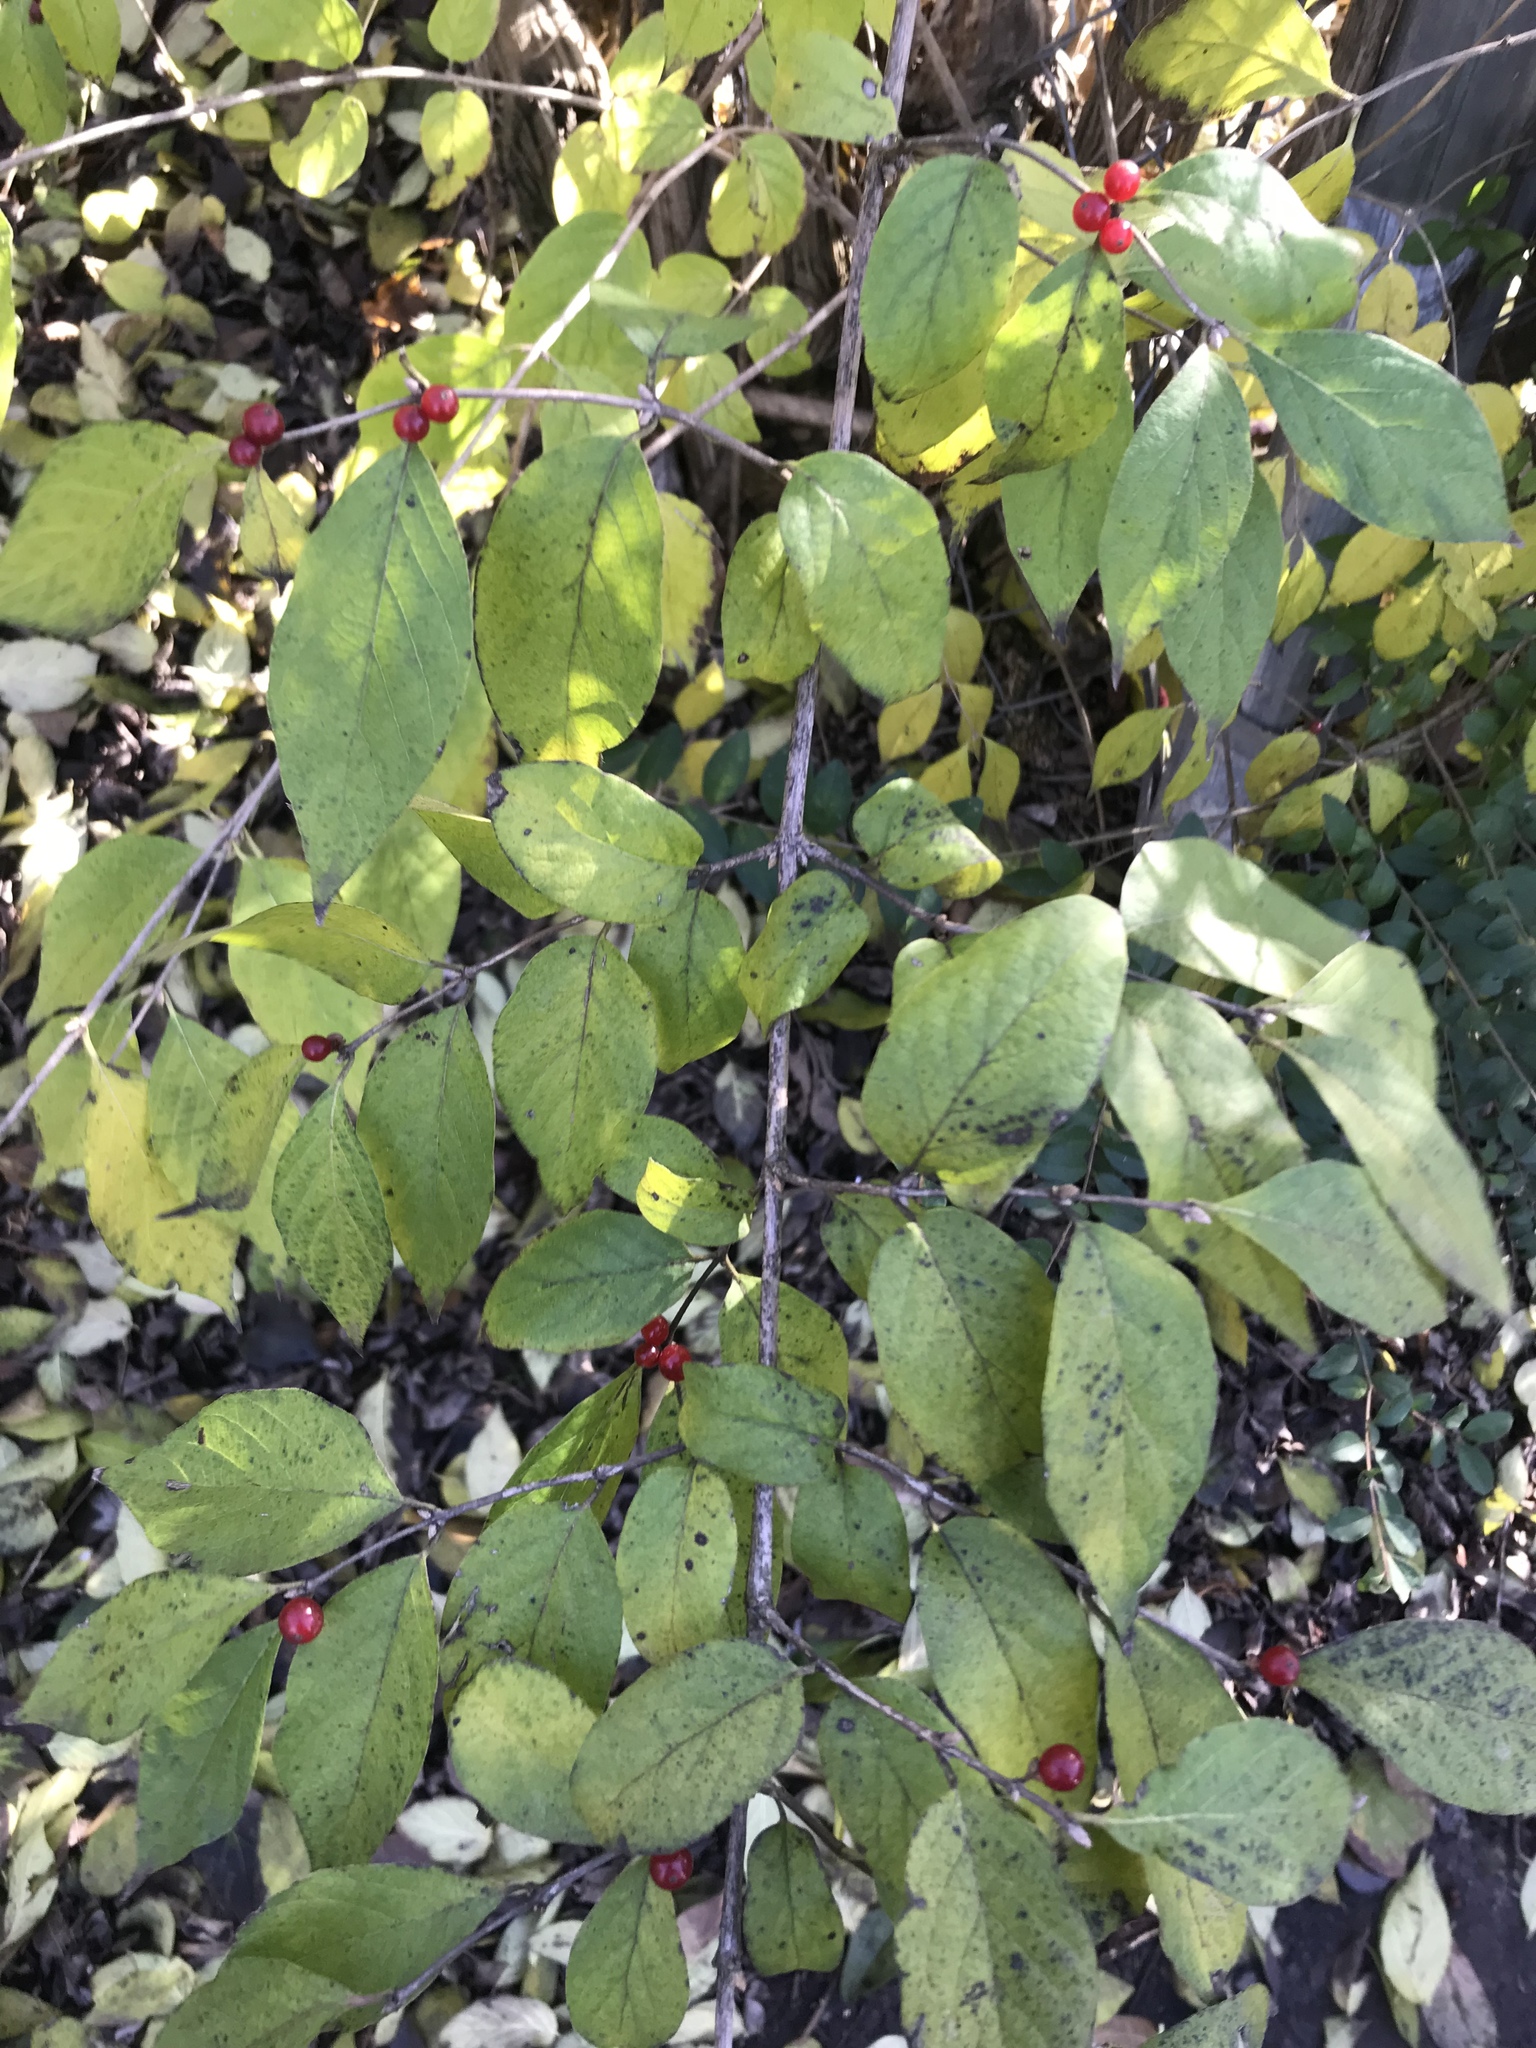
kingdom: Plantae
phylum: Tracheophyta
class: Magnoliopsida
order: Dipsacales
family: Caprifoliaceae
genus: Lonicera
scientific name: Lonicera maackii
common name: Amur honeysuckle
